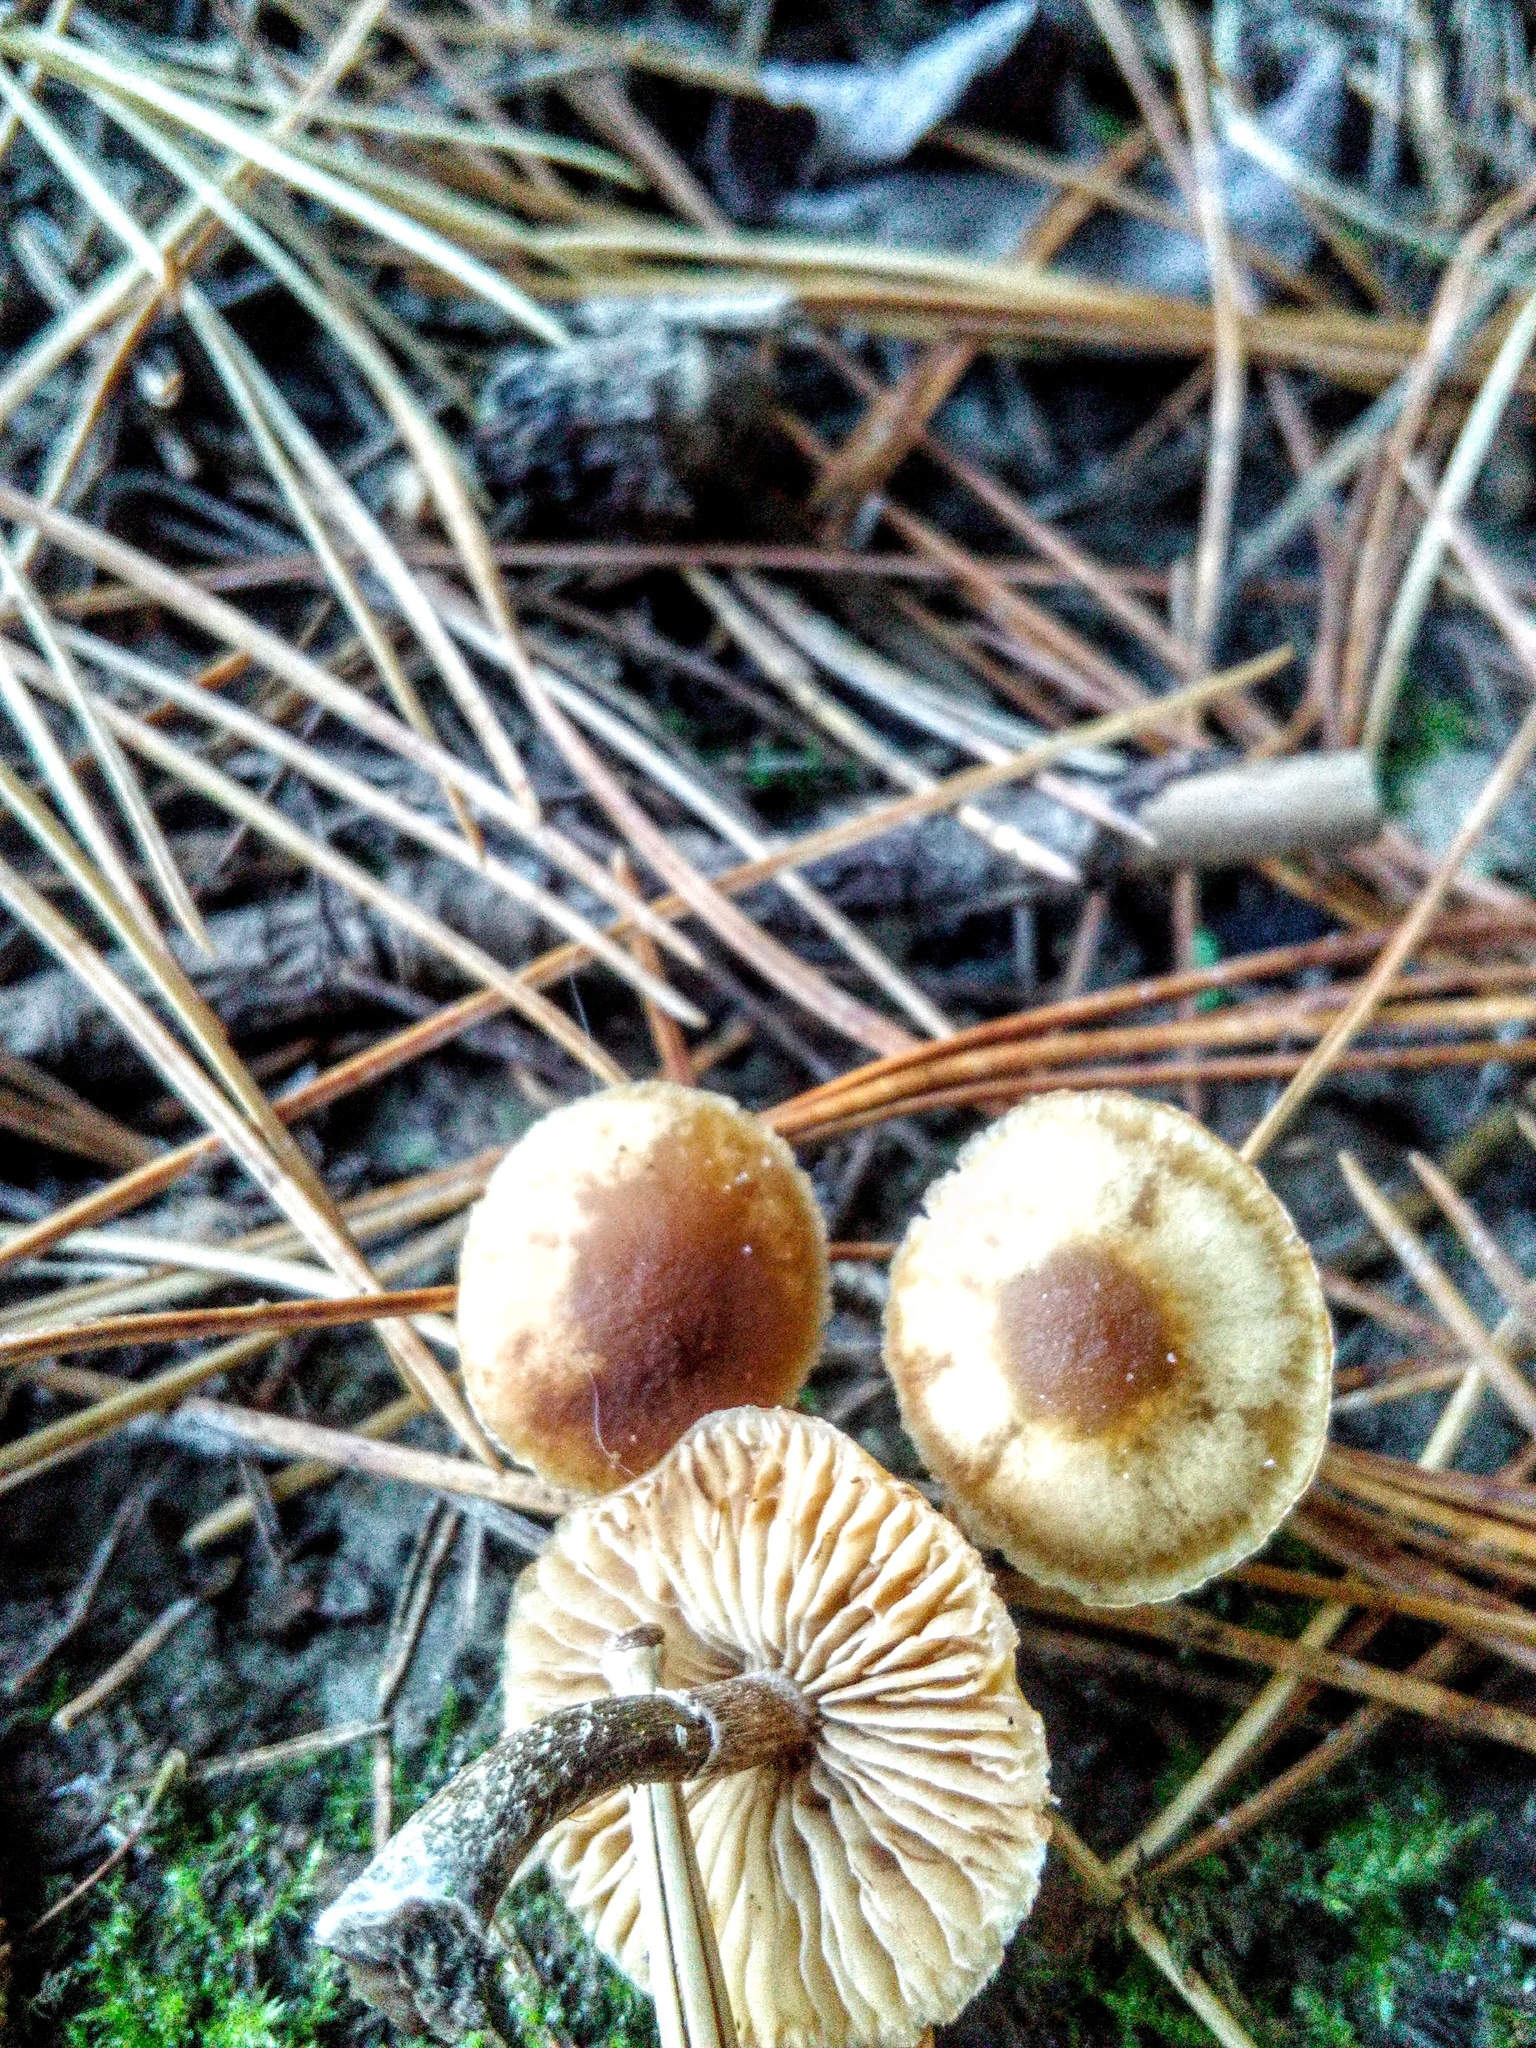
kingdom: Fungi
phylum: Basidiomycota
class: Agaricomycetes
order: Agaricales
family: Hymenogastraceae
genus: Galerina
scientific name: Galerina marginata
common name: Funeral bell
